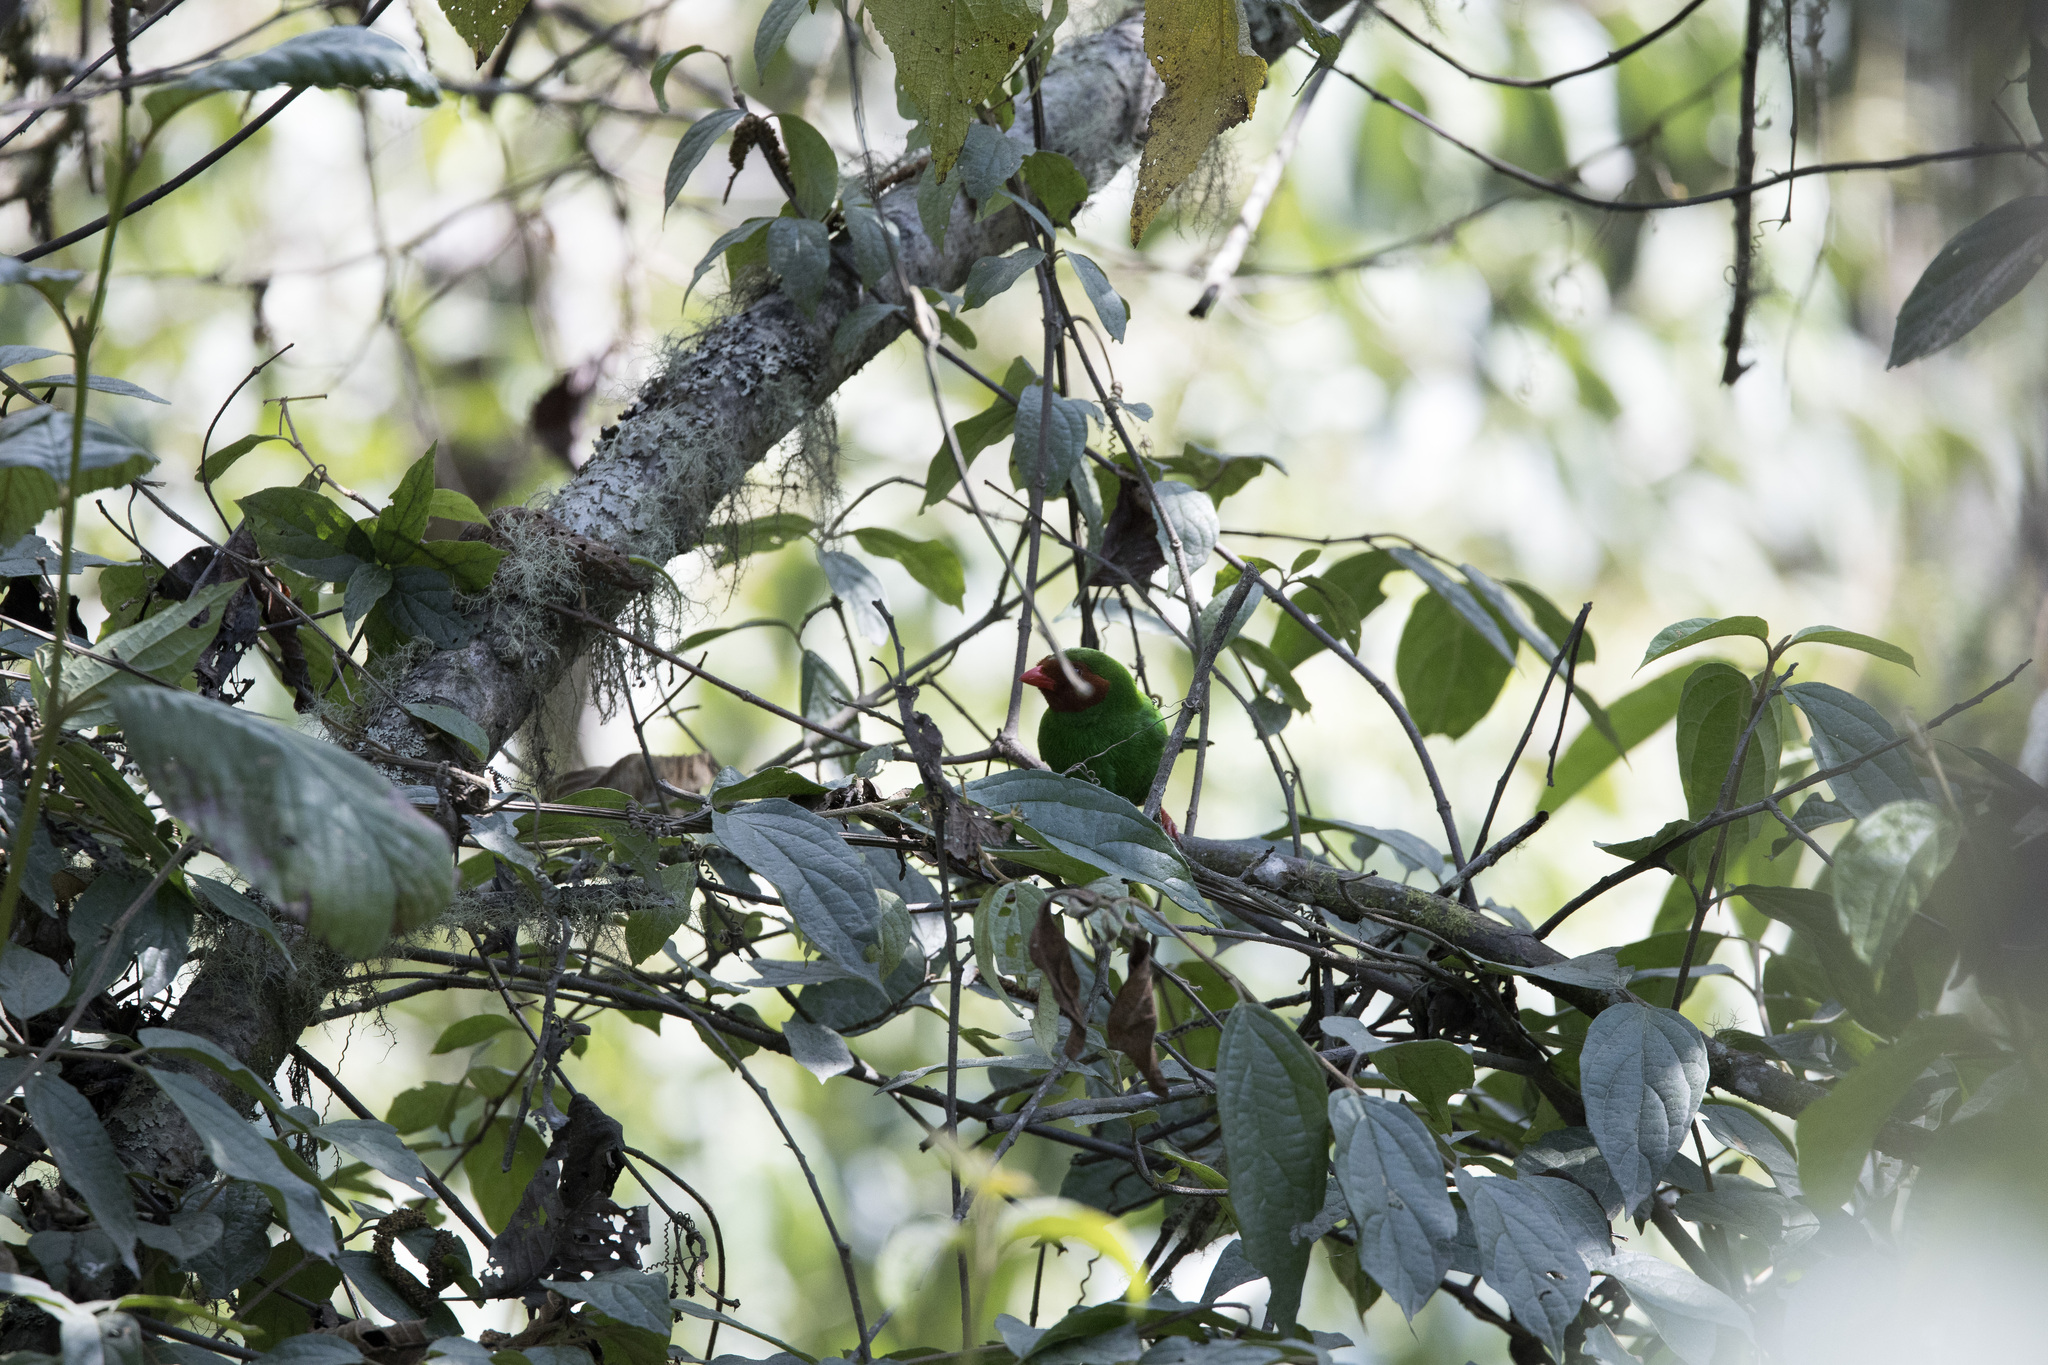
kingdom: Animalia
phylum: Chordata
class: Aves
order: Passeriformes
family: Thraupidae
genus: Chlorornis
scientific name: Chlorornis riefferii
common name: Grass-green tanager
